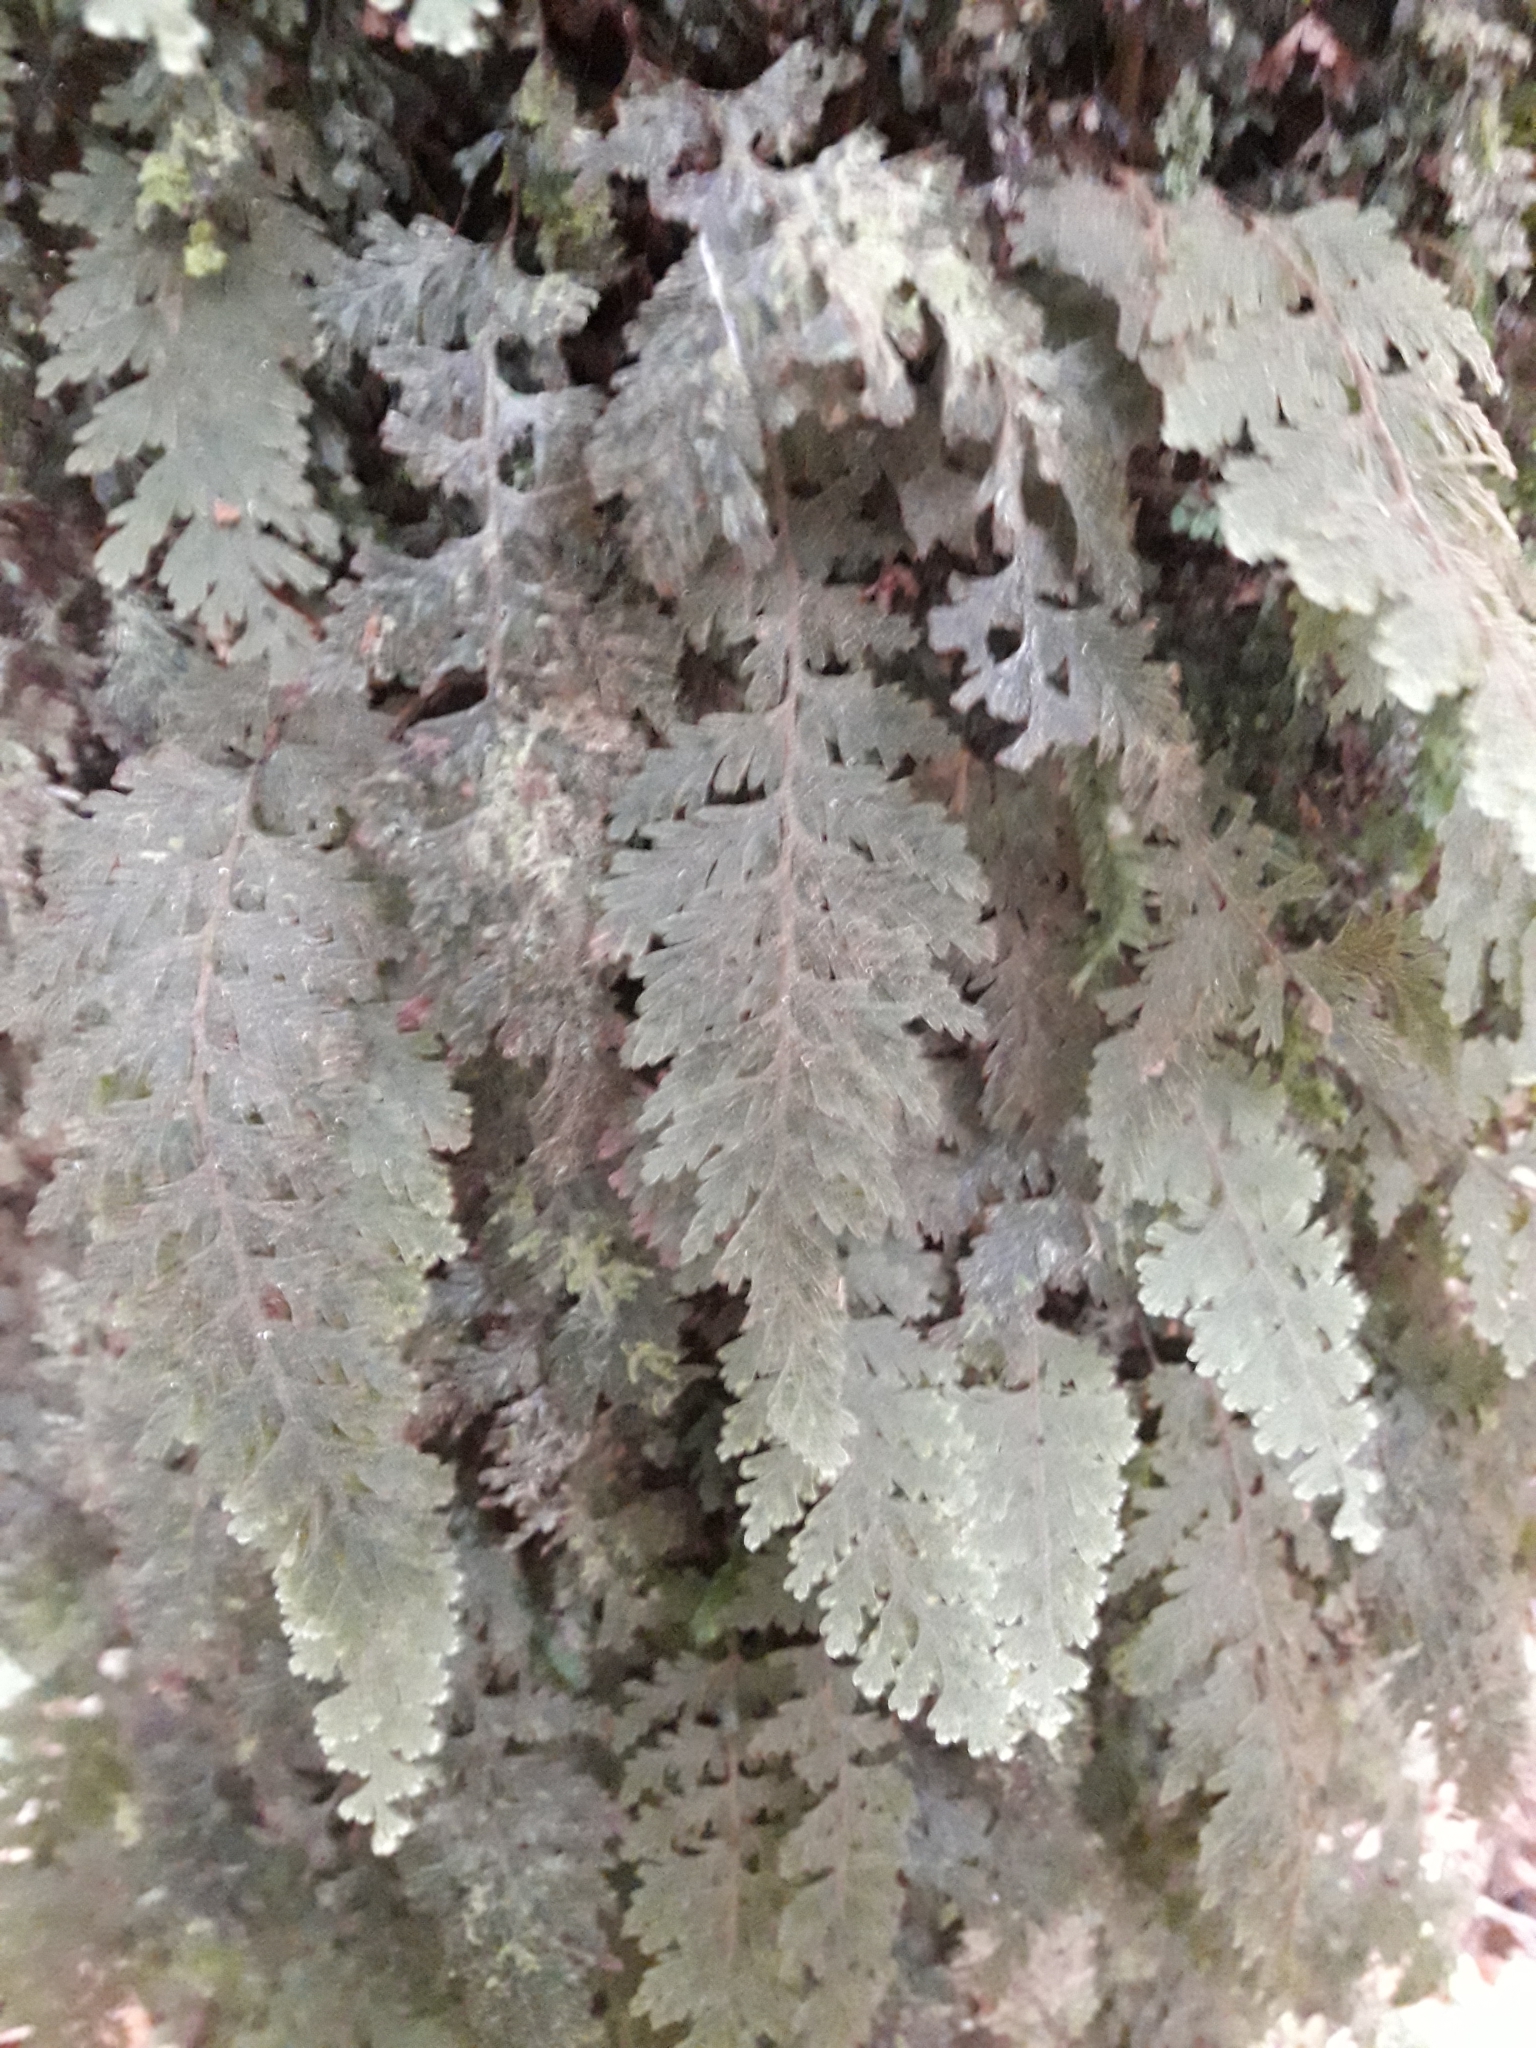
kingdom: Plantae
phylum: Tracheophyta
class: Polypodiopsida
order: Hymenophyllales
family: Hymenophyllaceae
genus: Hymenophyllum
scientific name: Hymenophyllum frankliniae
